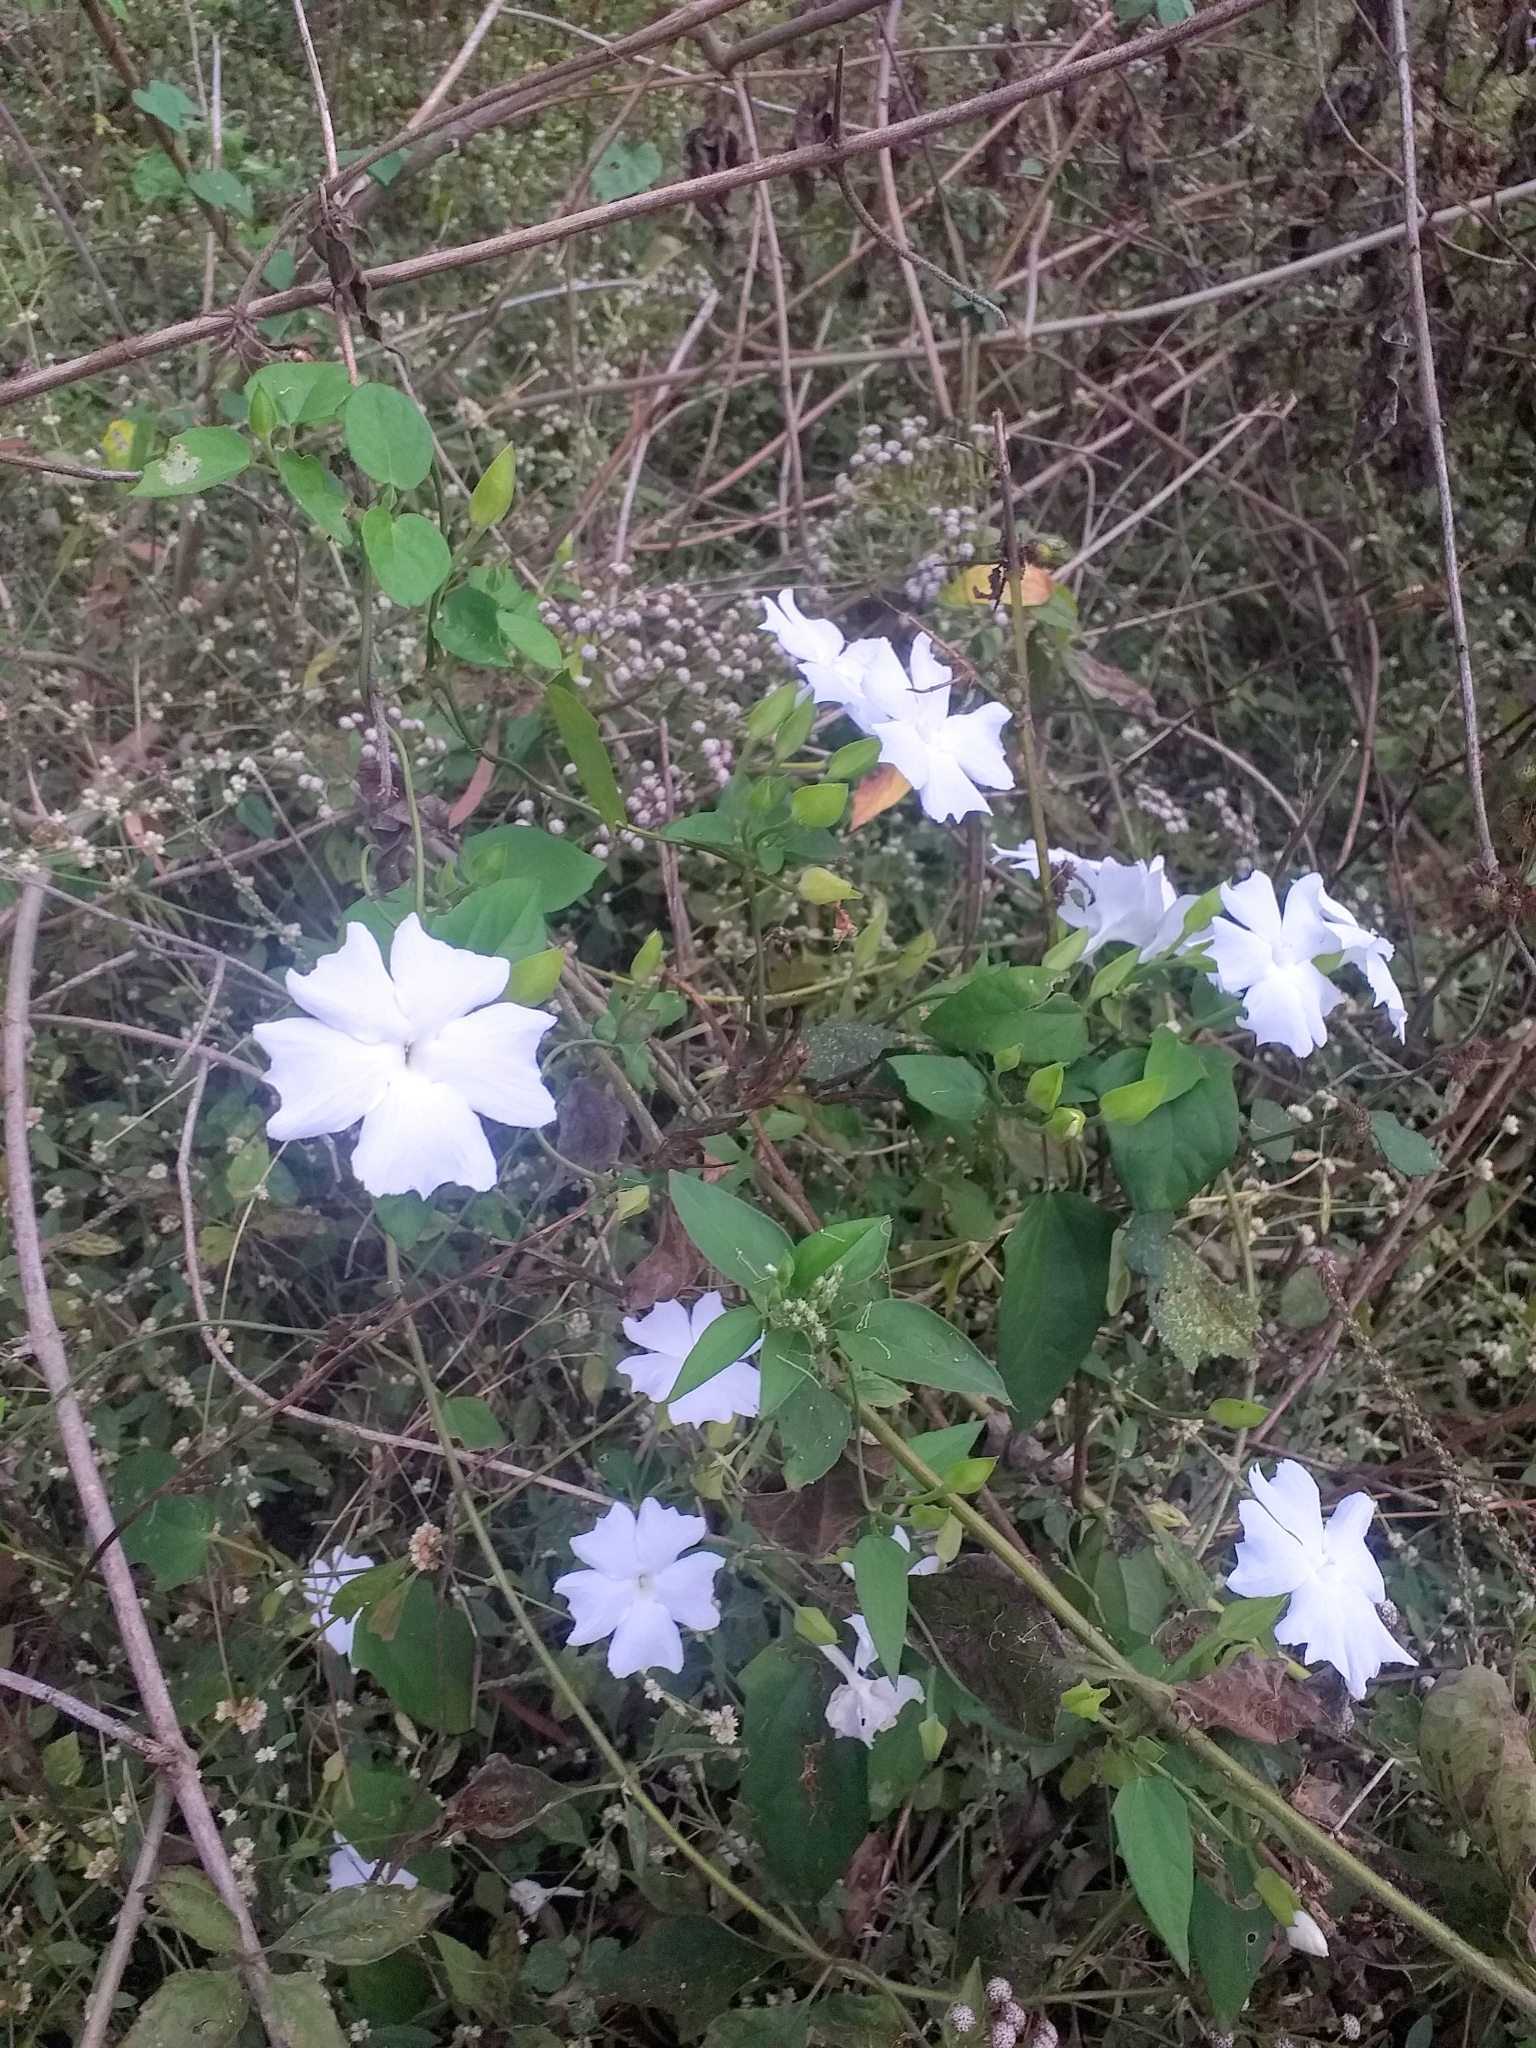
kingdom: Plantae
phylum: Tracheophyta
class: Magnoliopsida
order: Lamiales
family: Acanthaceae
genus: Thunbergia
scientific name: Thunbergia fragrans
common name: Whitelady
